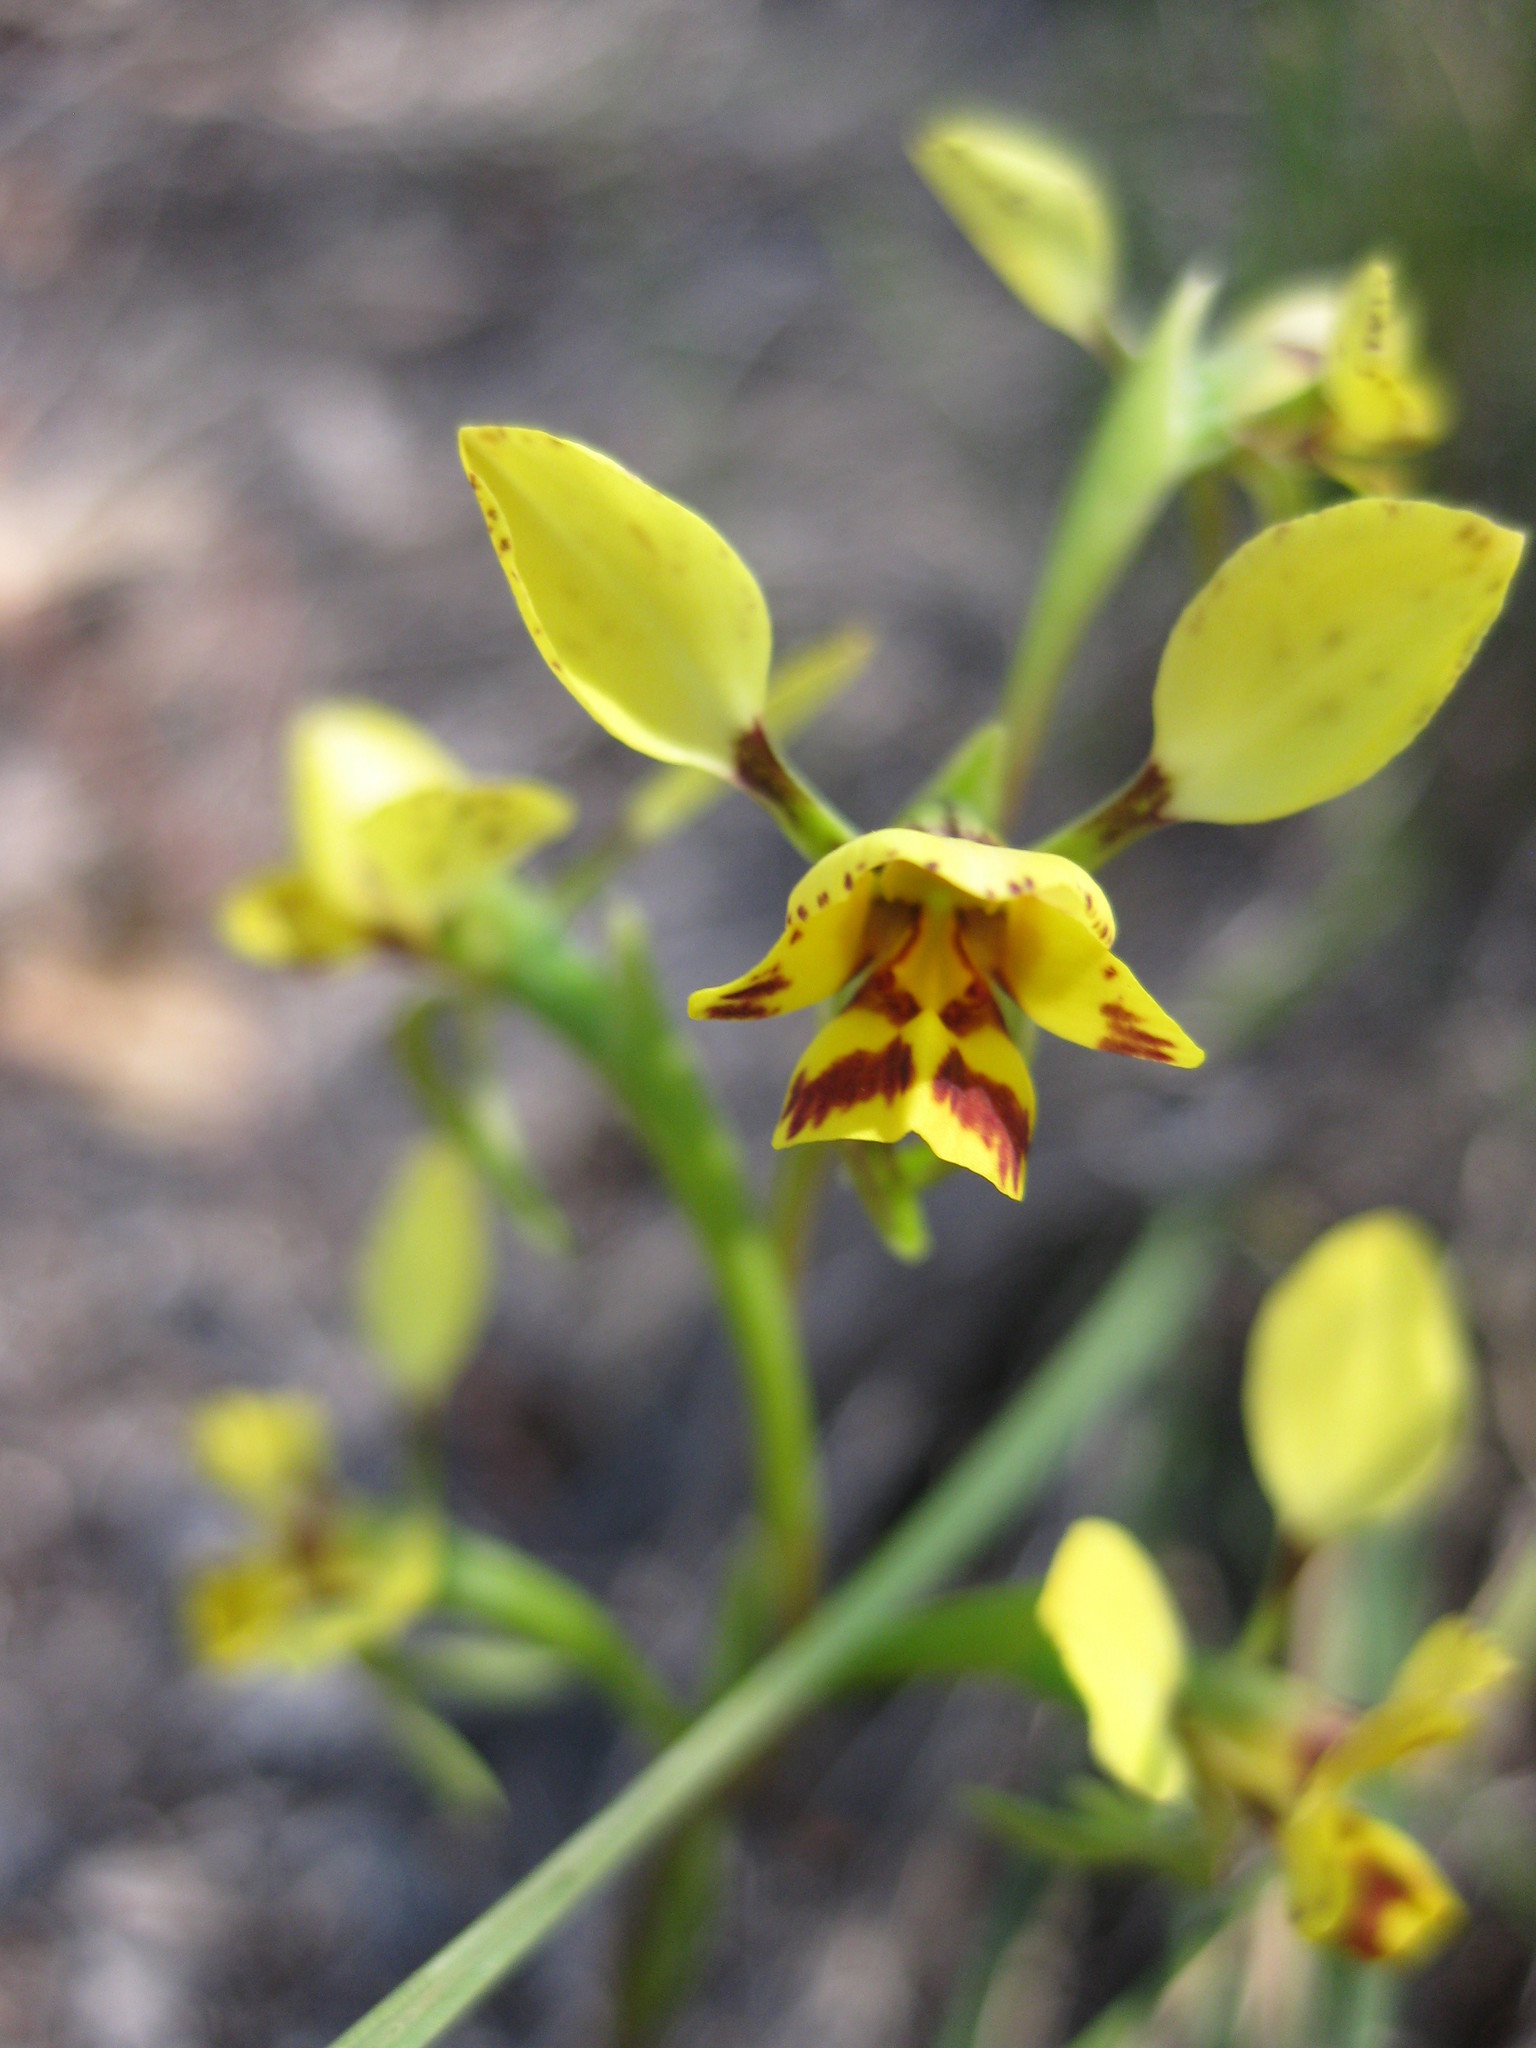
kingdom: Plantae
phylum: Tracheophyta
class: Liliopsida
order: Asparagales
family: Orchidaceae
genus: Diuris
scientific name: Diuris
